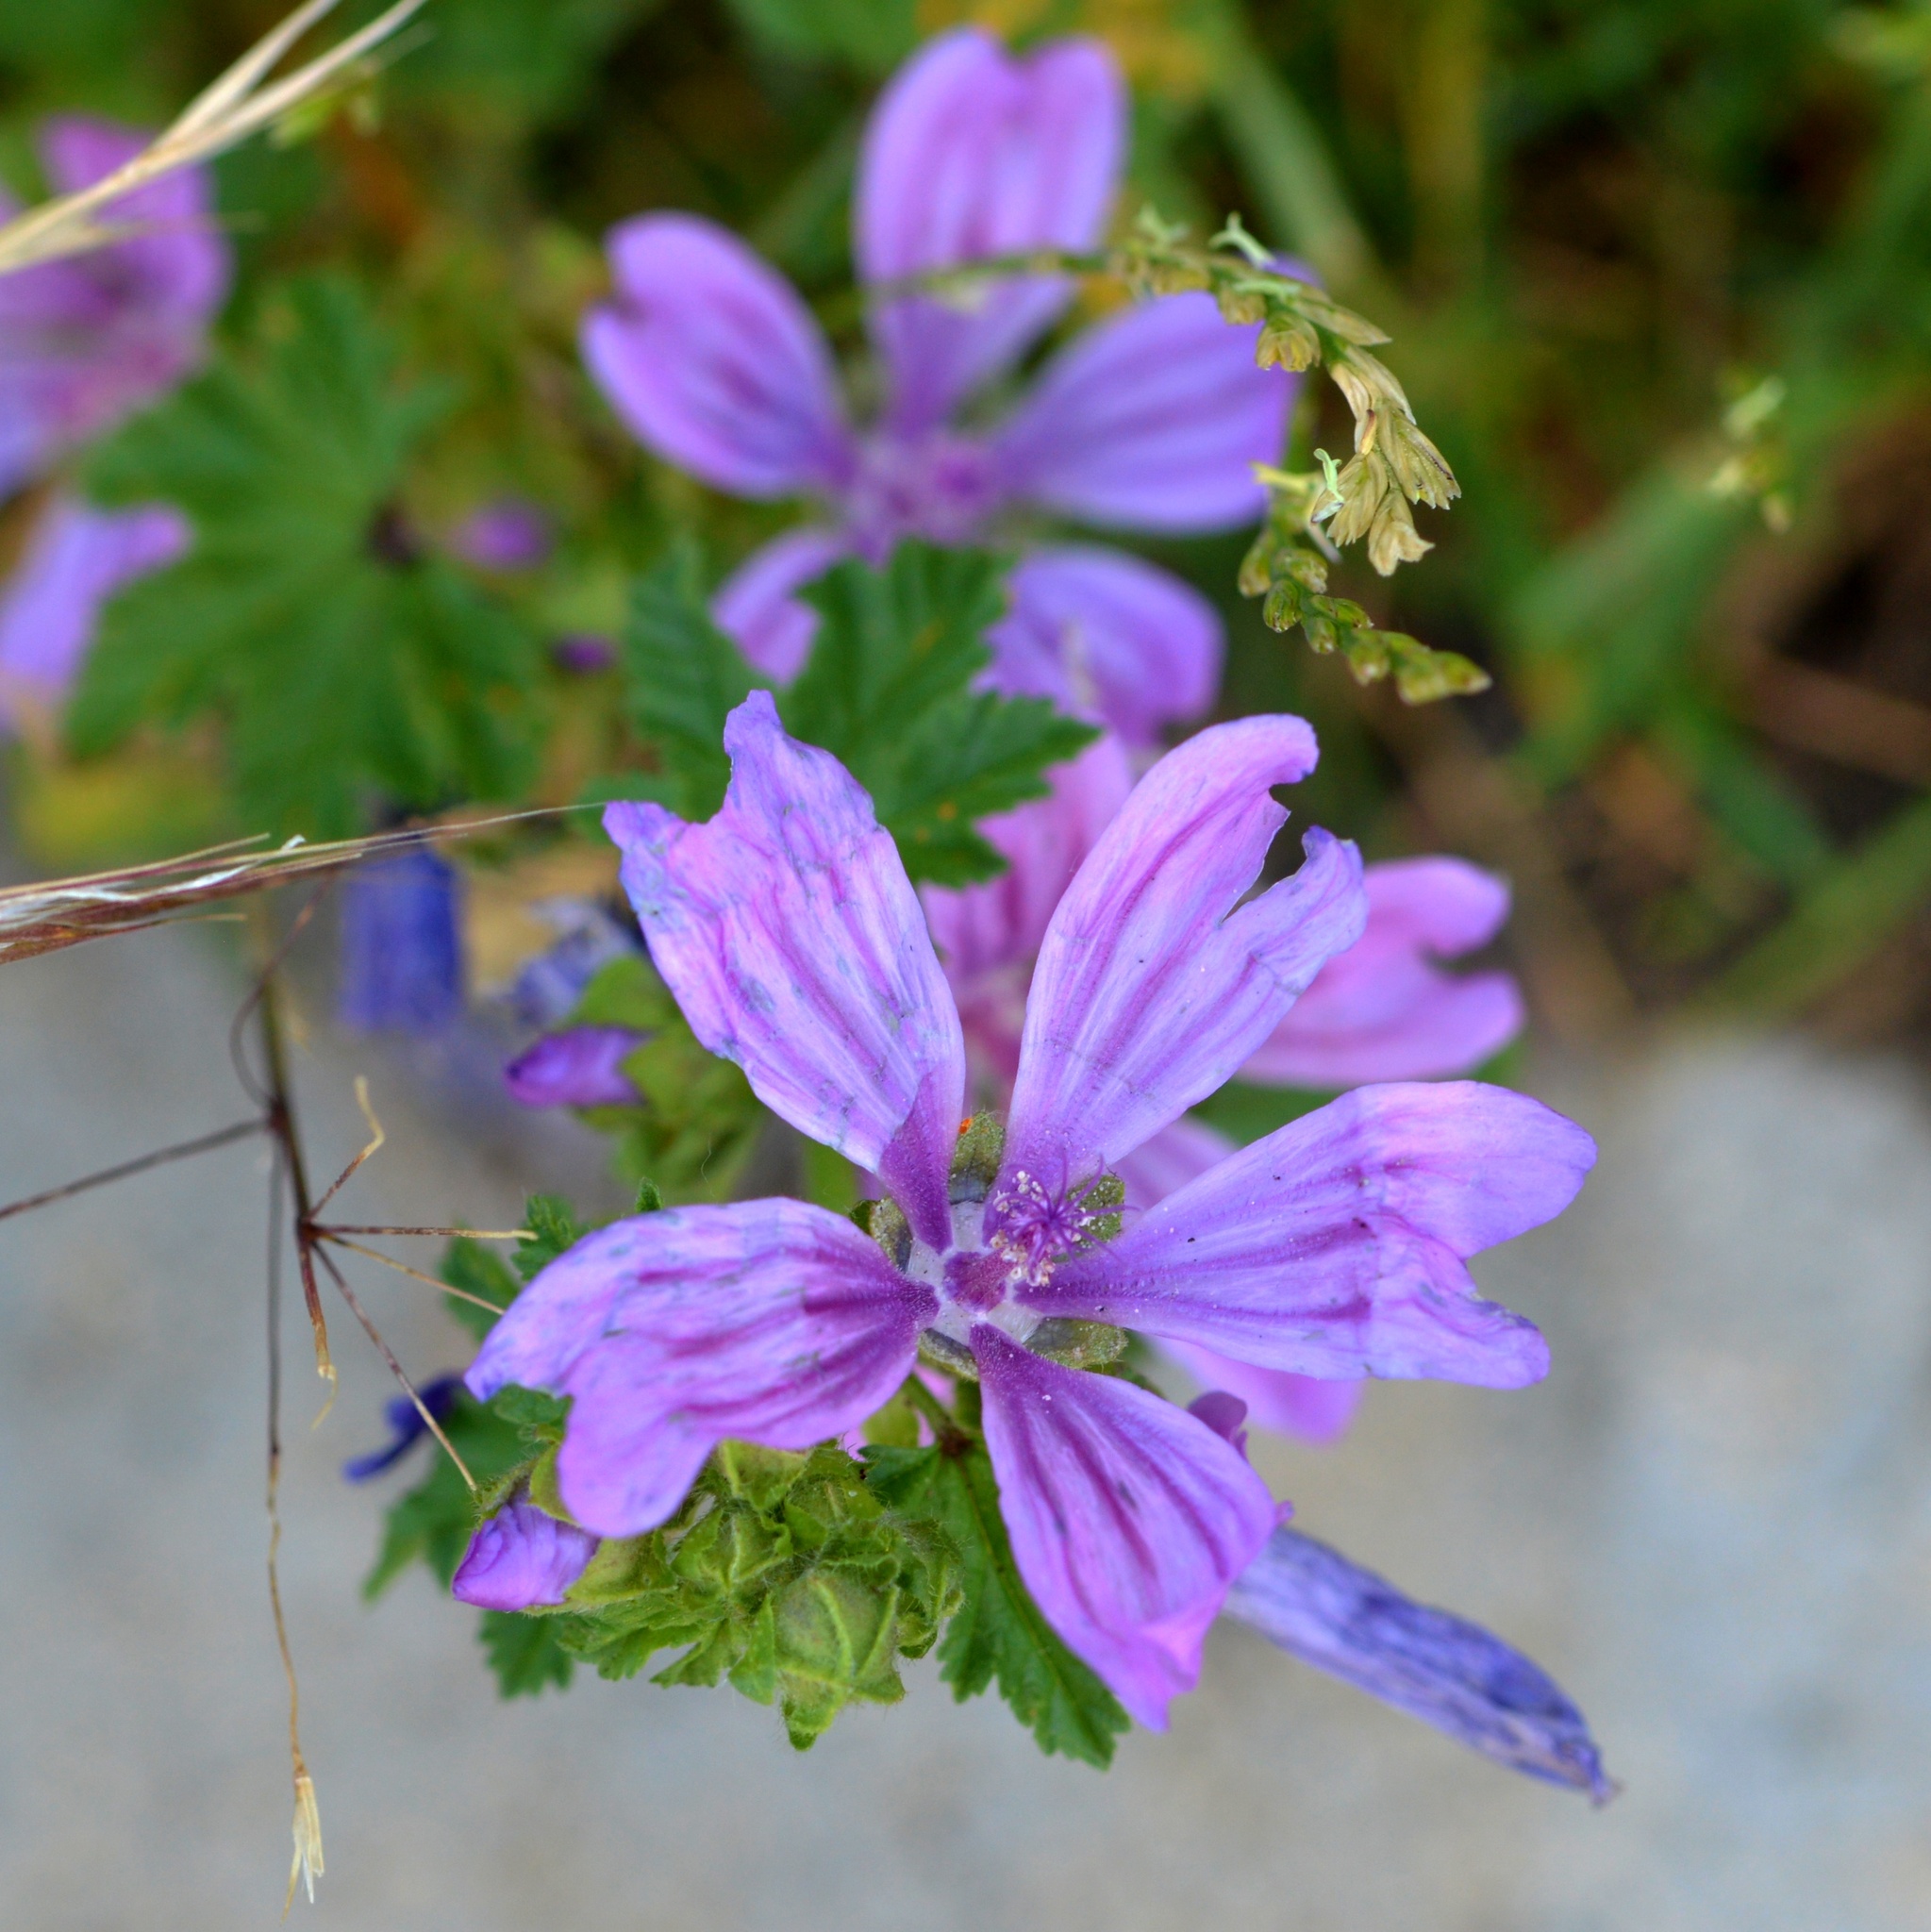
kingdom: Plantae
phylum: Tracheophyta
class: Magnoliopsida
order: Malvales
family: Malvaceae
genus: Malva
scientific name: Malva sylvestris
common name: Common mallow
